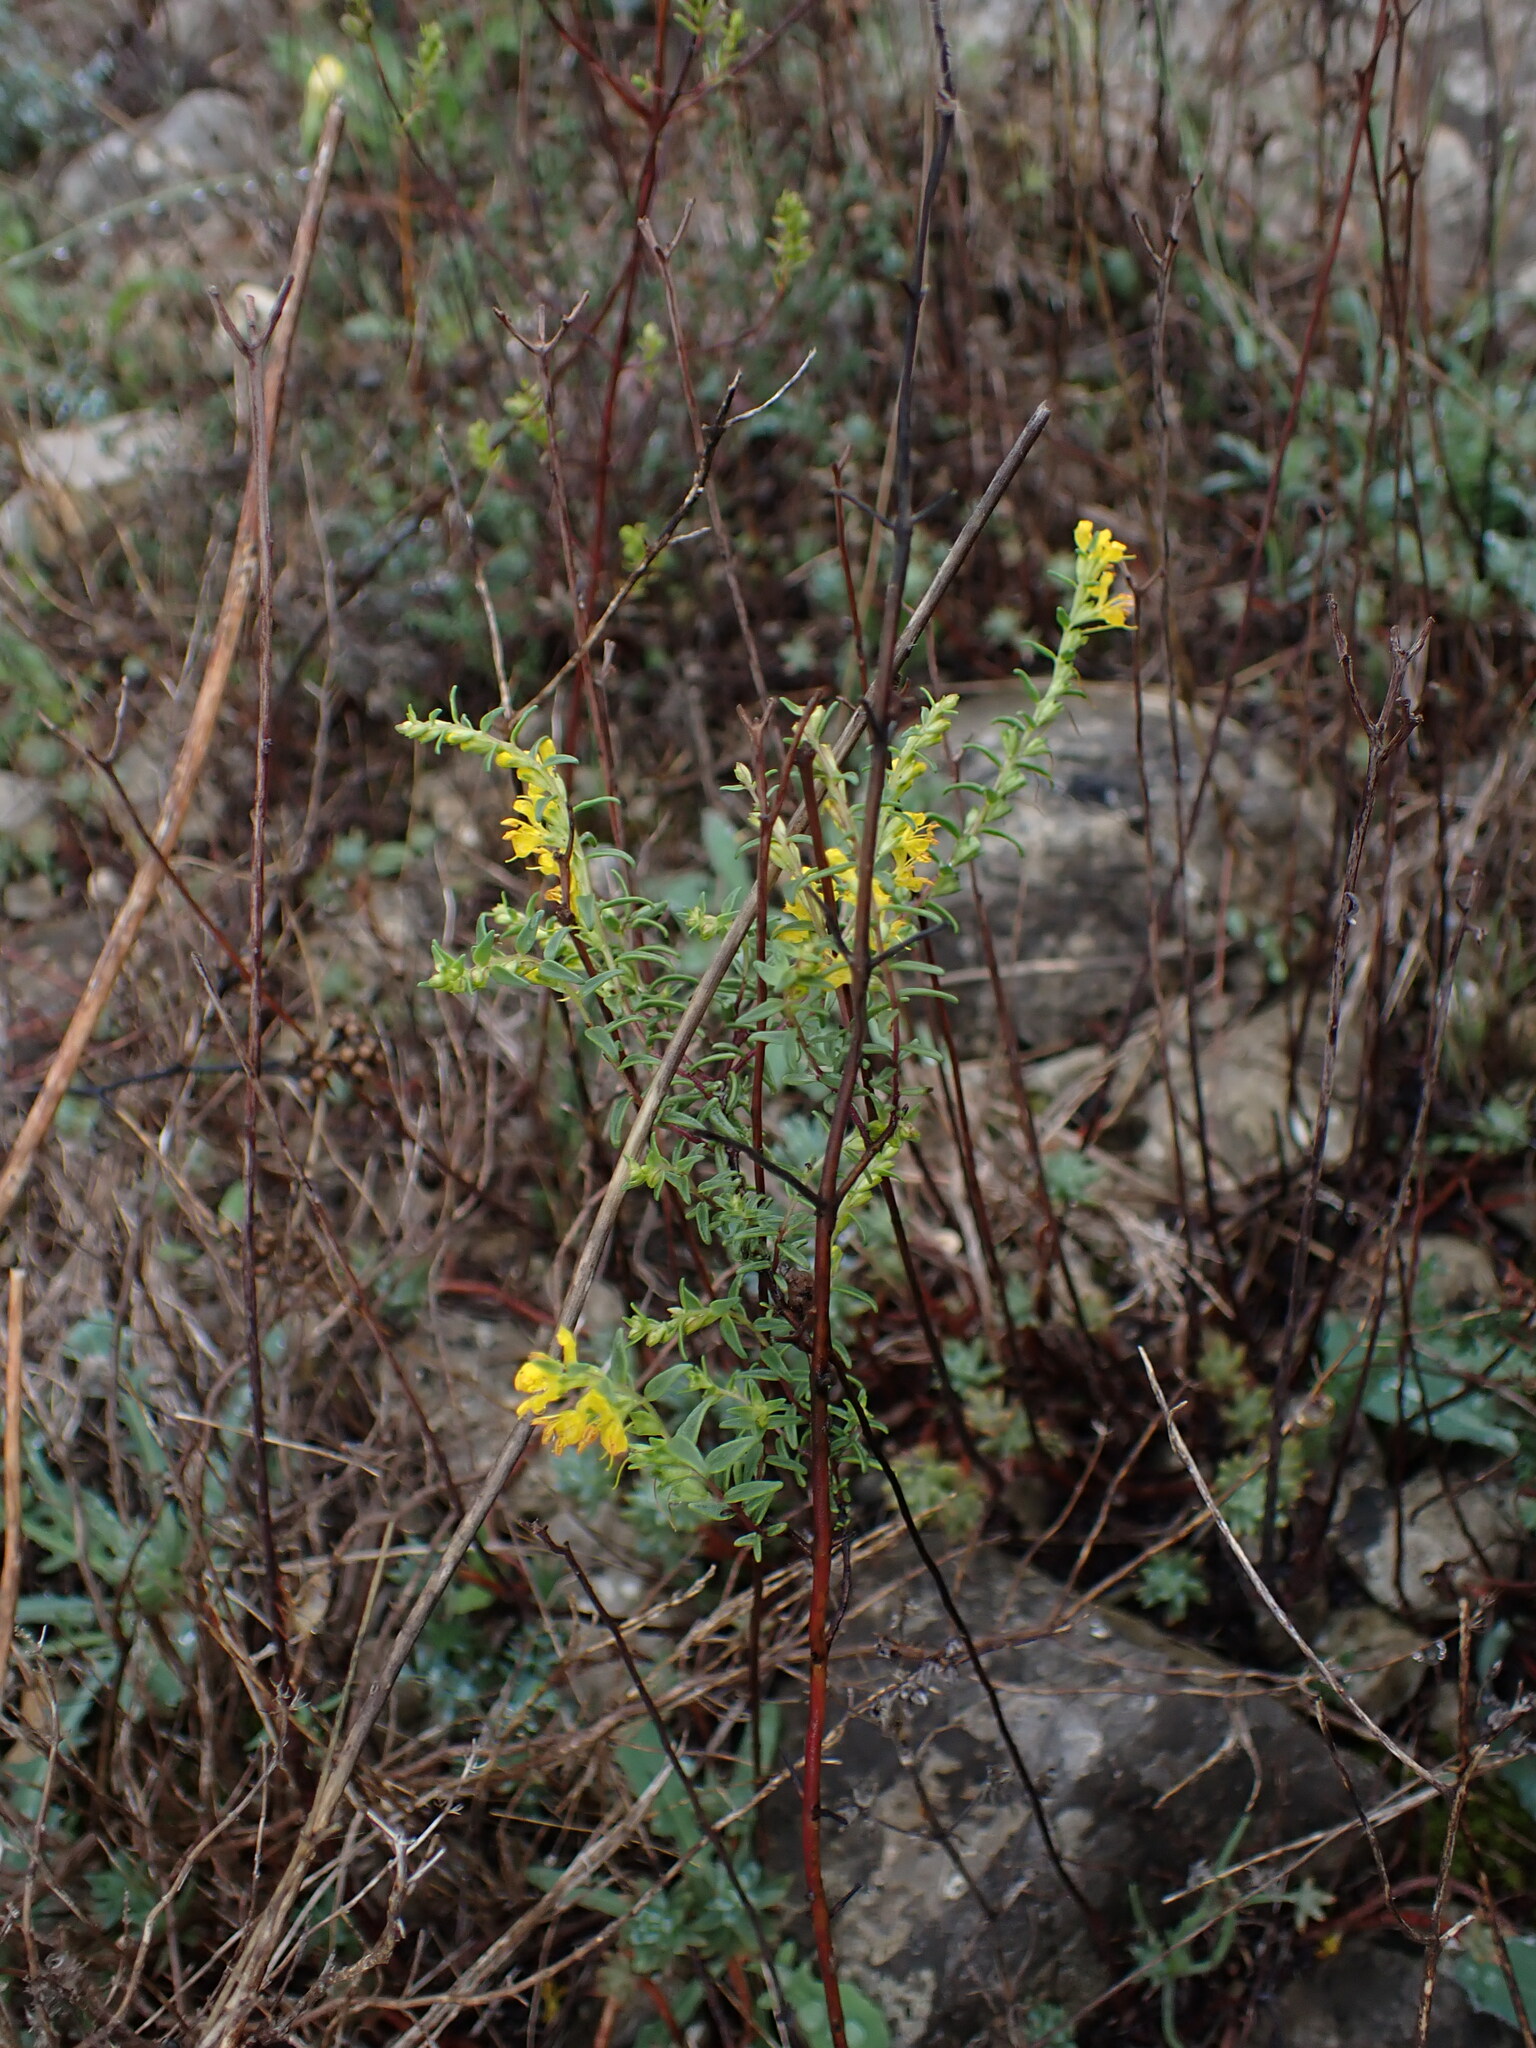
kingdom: Plantae
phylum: Tracheophyta
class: Magnoliopsida
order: Lamiales
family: Orobanchaceae
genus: Odontites
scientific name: Odontites luteus
